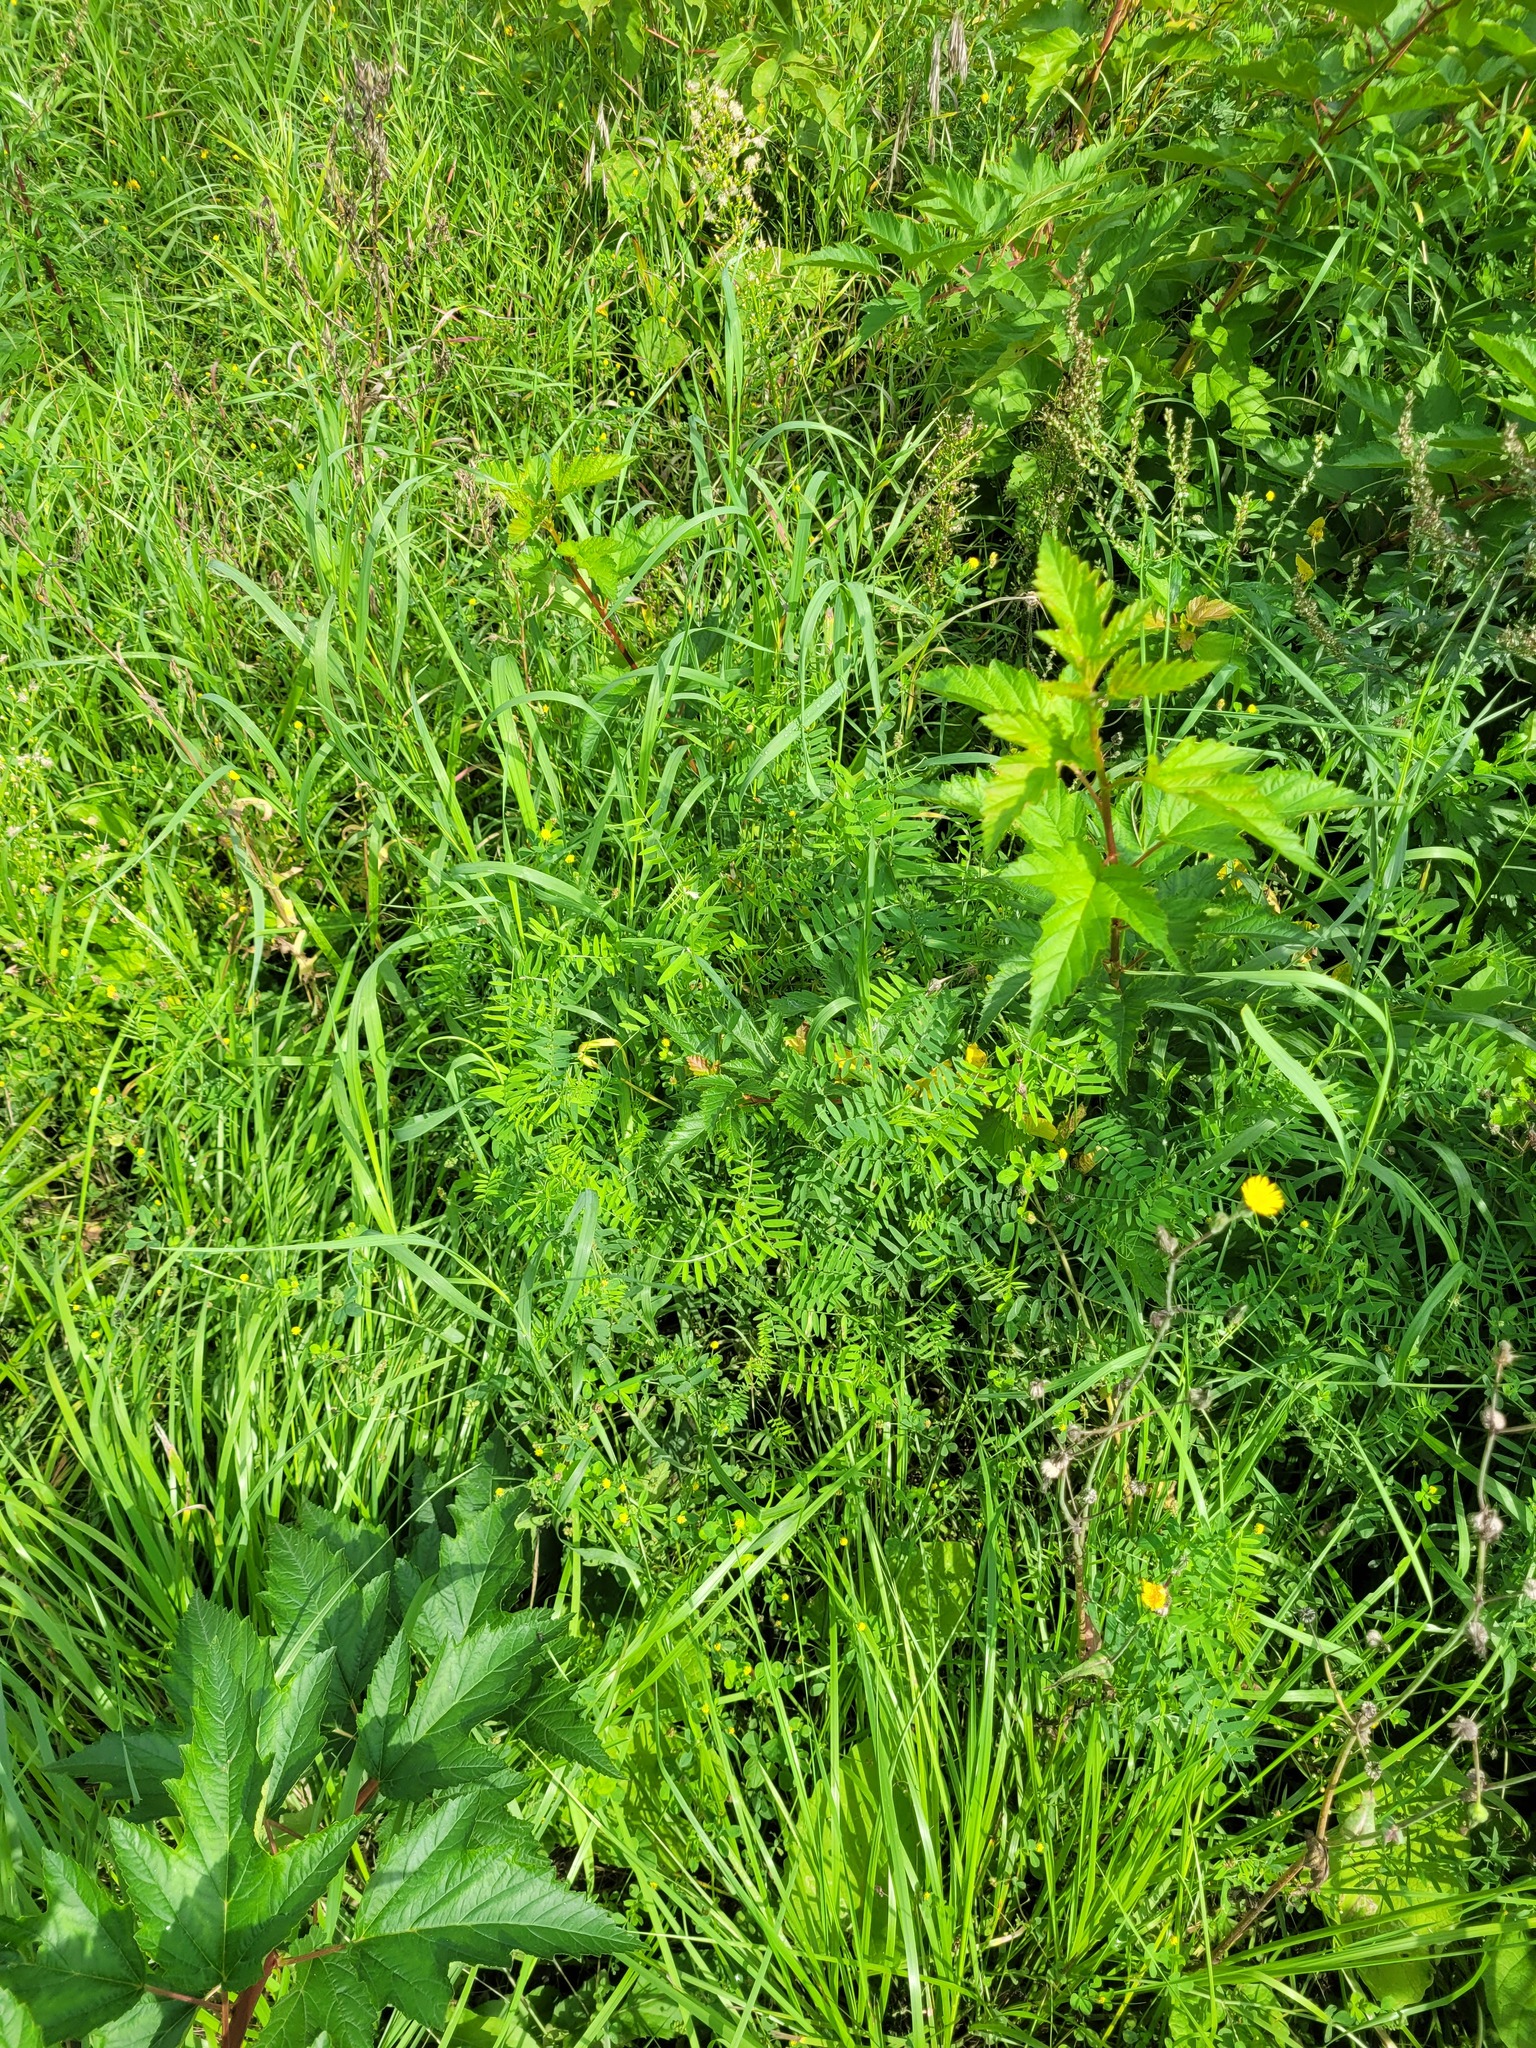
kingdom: Plantae
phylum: Tracheophyta
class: Magnoliopsida
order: Fabales
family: Fabaceae
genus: Vicia
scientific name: Vicia cracca
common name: Bird vetch
